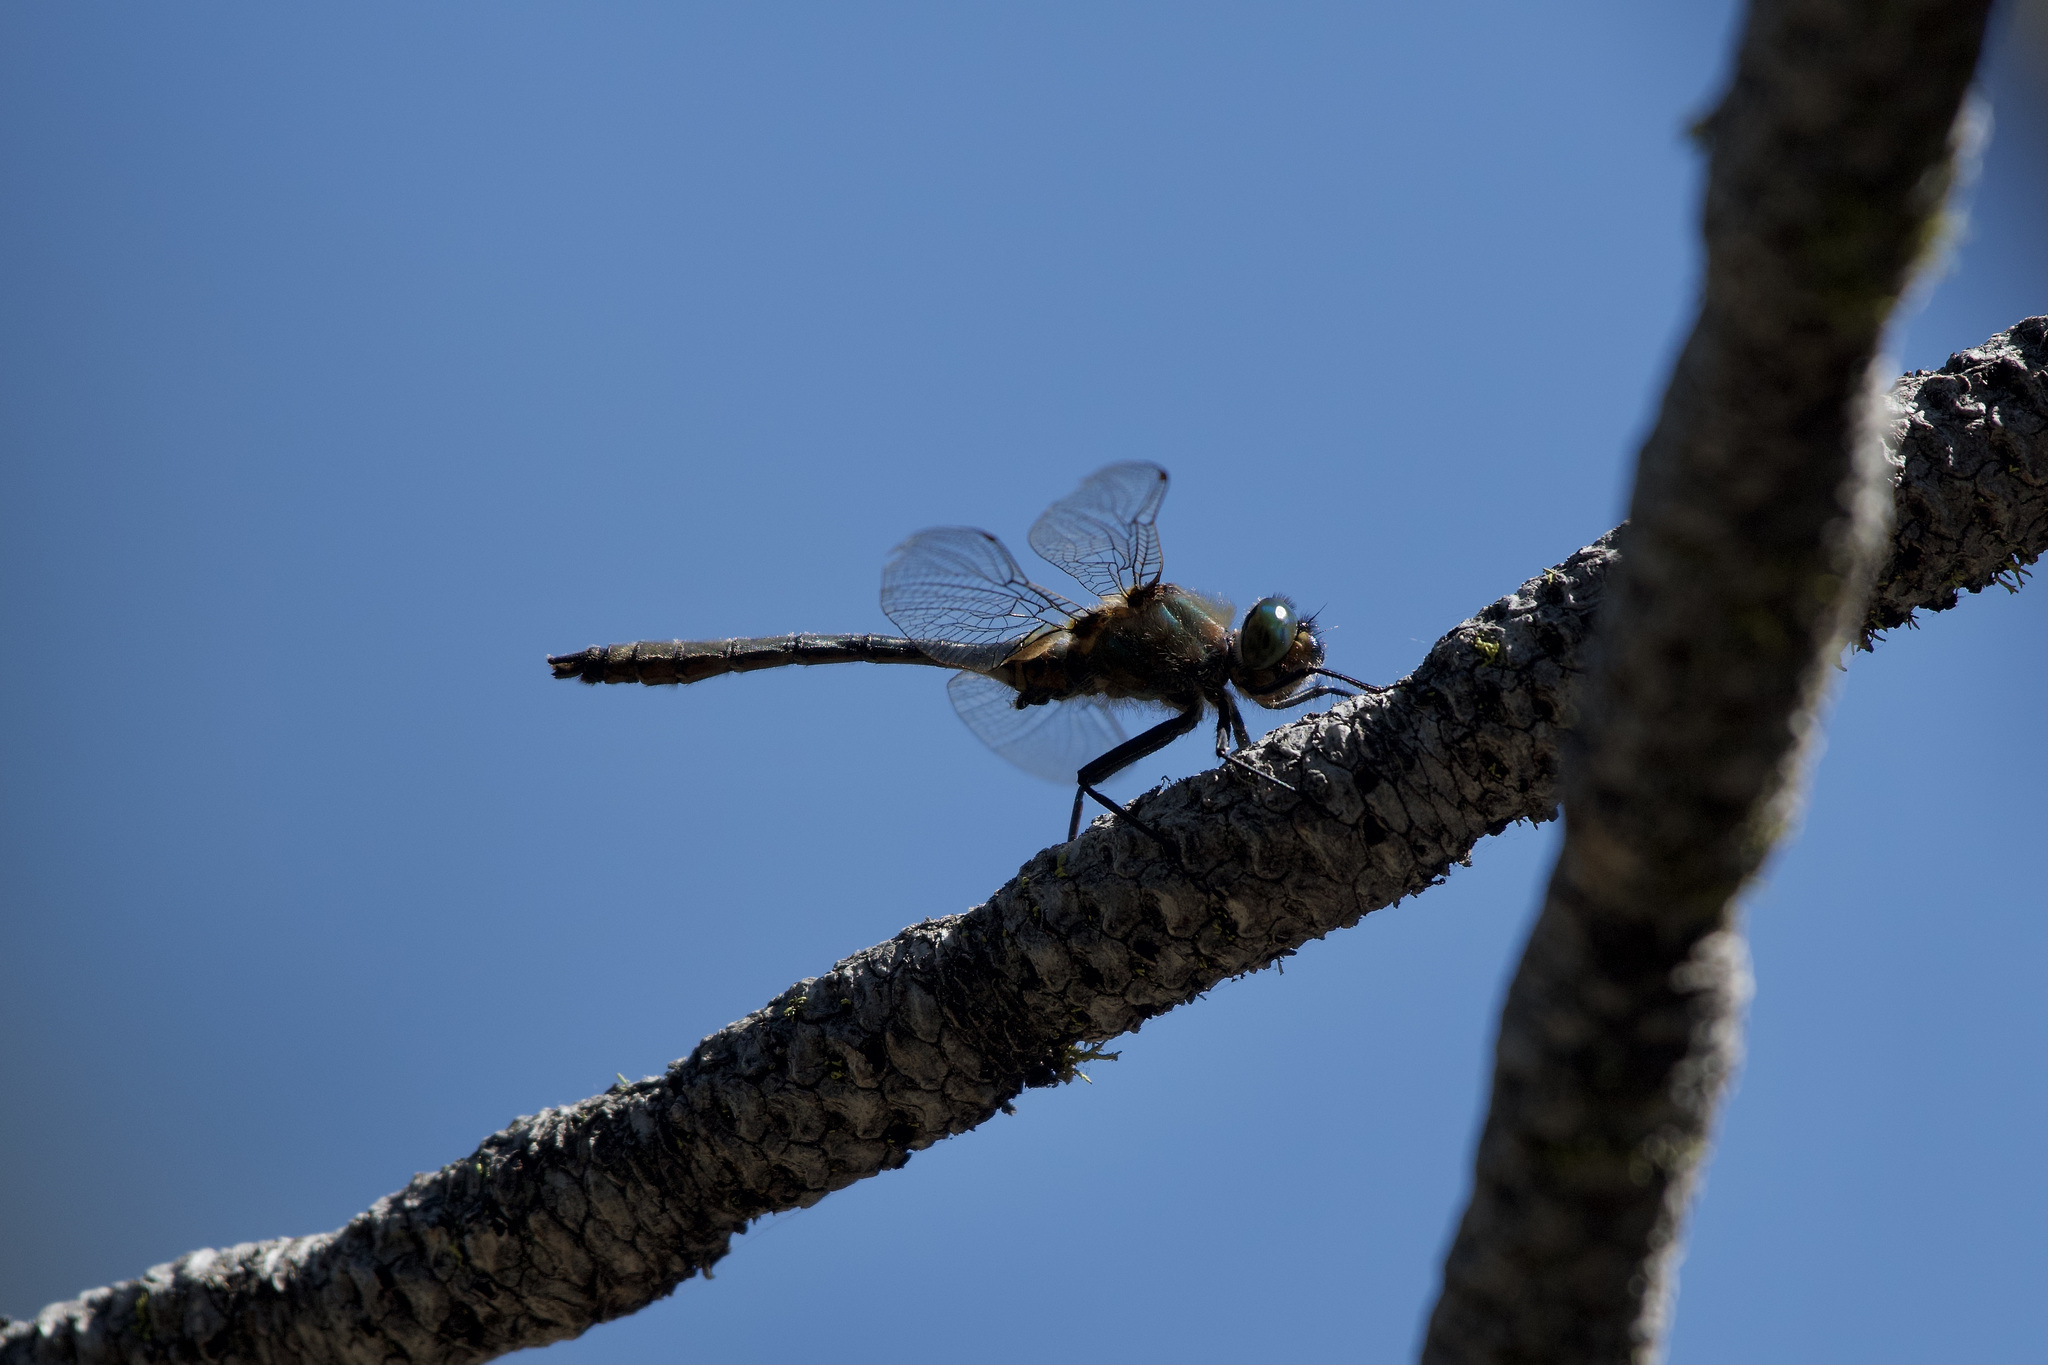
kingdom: Animalia
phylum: Arthropoda
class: Insecta
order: Odonata
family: Corduliidae
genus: Cordulia
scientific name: Cordulia shurtleffii
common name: American emerald
